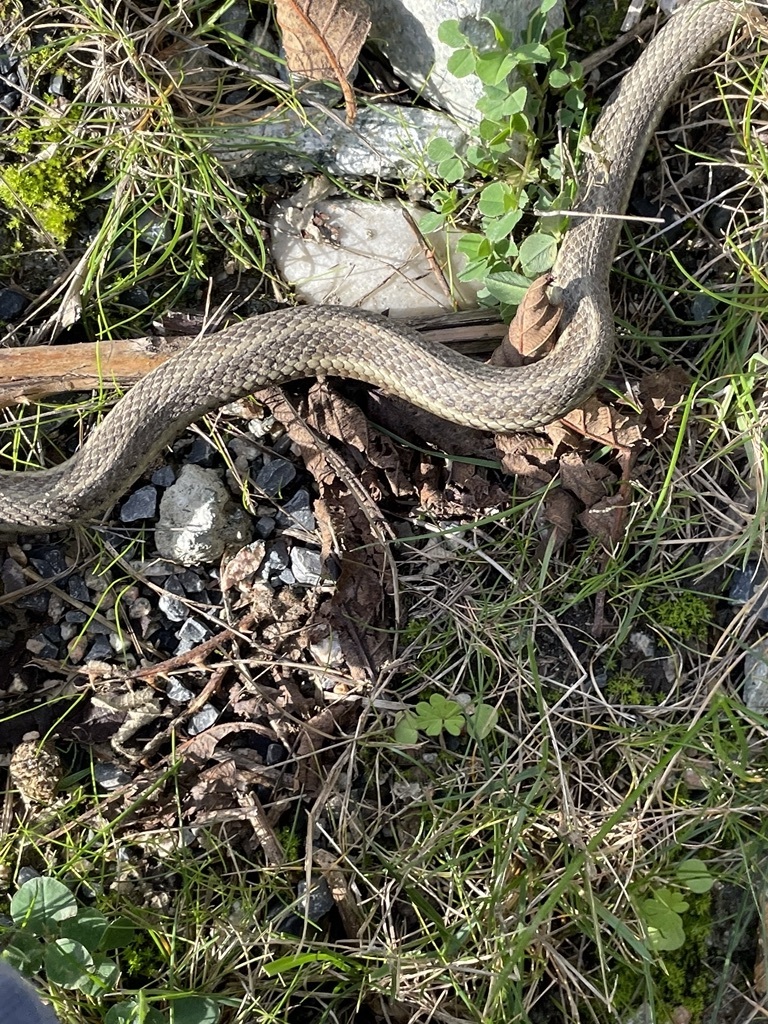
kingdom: Animalia
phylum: Chordata
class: Squamata
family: Colubridae
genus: Thamnophis
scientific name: Thamnophis ordinoides
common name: Northwestern garter snake
